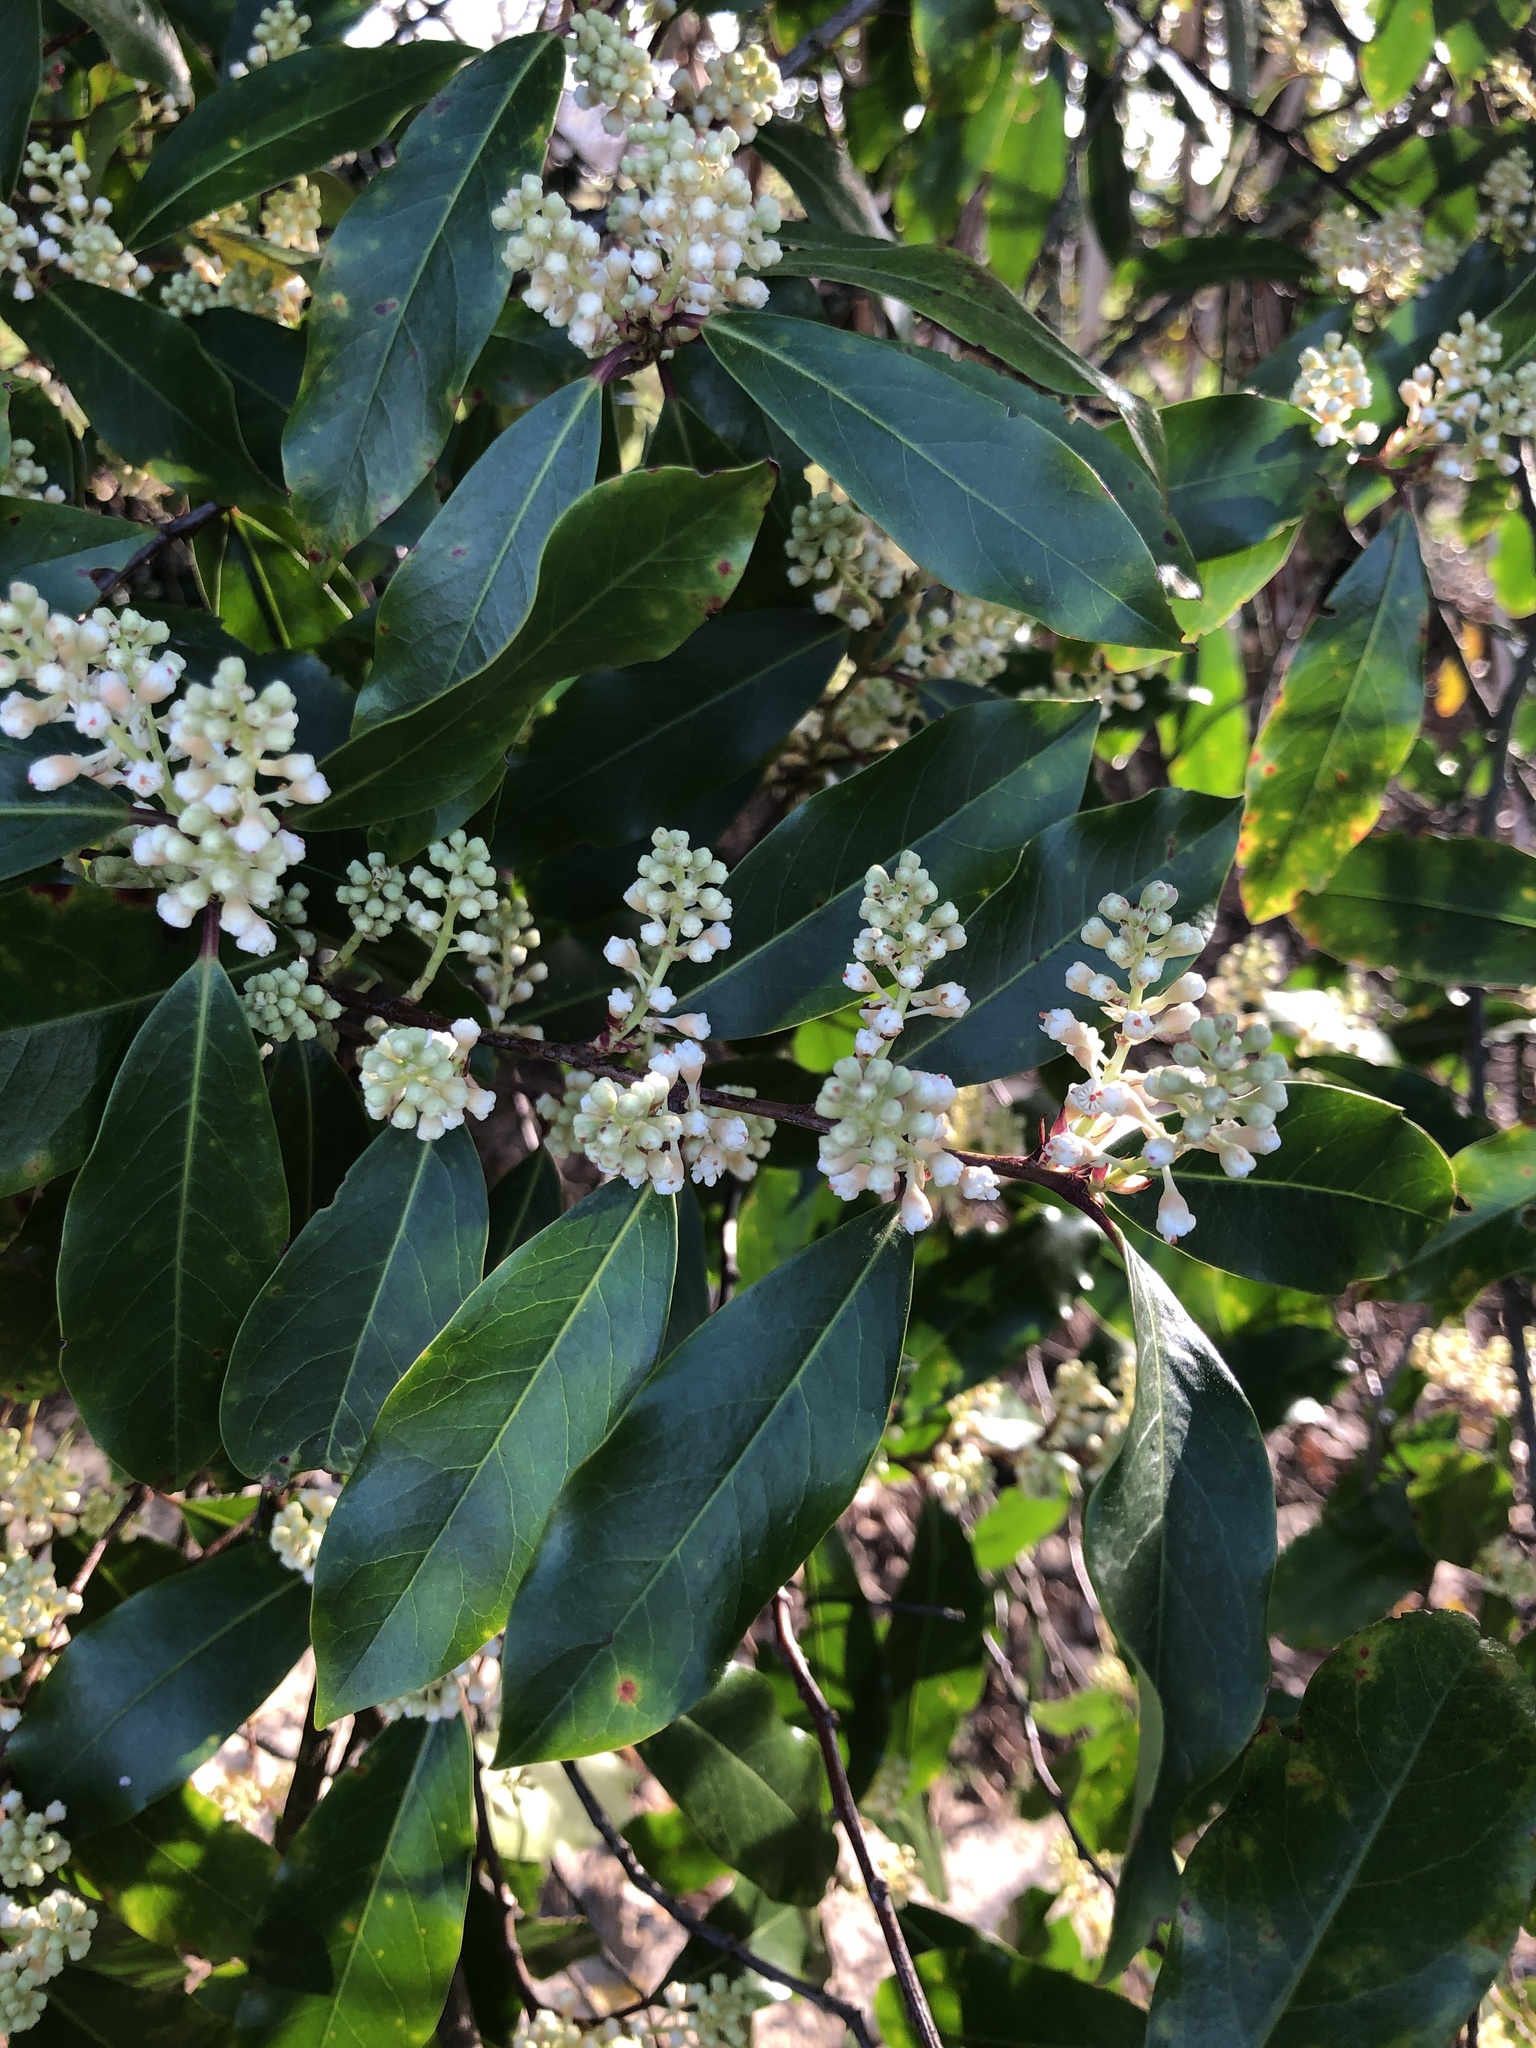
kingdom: Plantae
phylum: Tracheophyta
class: Magnoliopsida
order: Rosales
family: Rosaceae
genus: Prunus
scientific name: Prunus caroliniana
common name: Carolina laurel cherry
